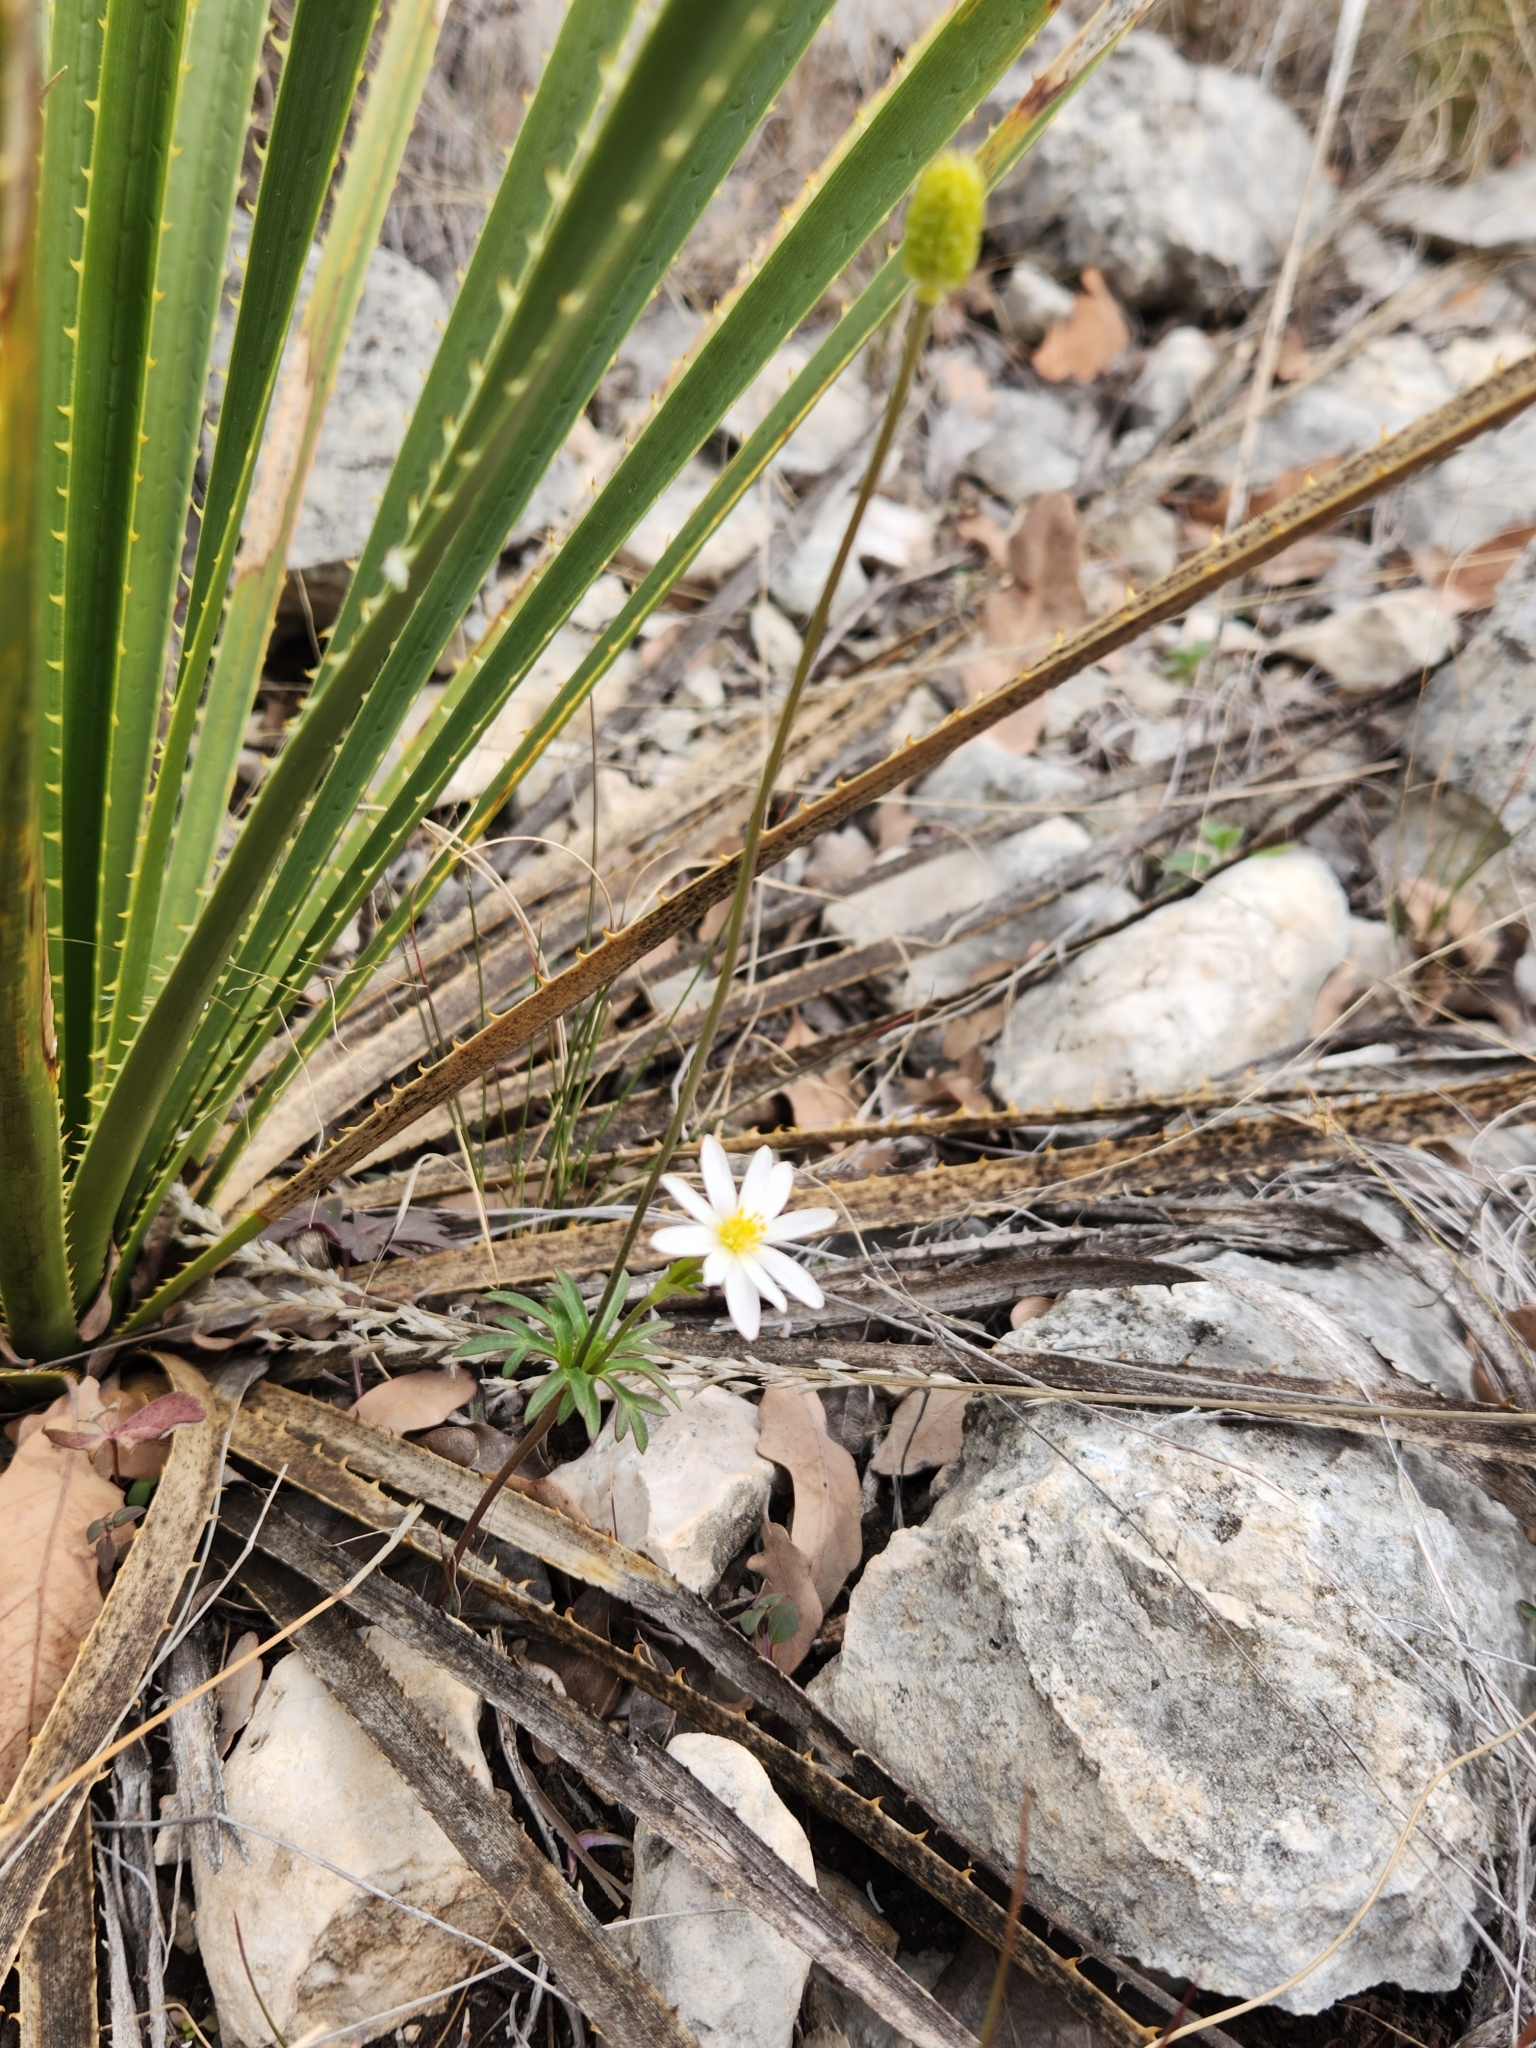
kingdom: Plantae
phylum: Tracheophyta
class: Magnoliopsida
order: Ranunculales
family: Ranunculaceae
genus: Anemone
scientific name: Anemone edwardsiana
